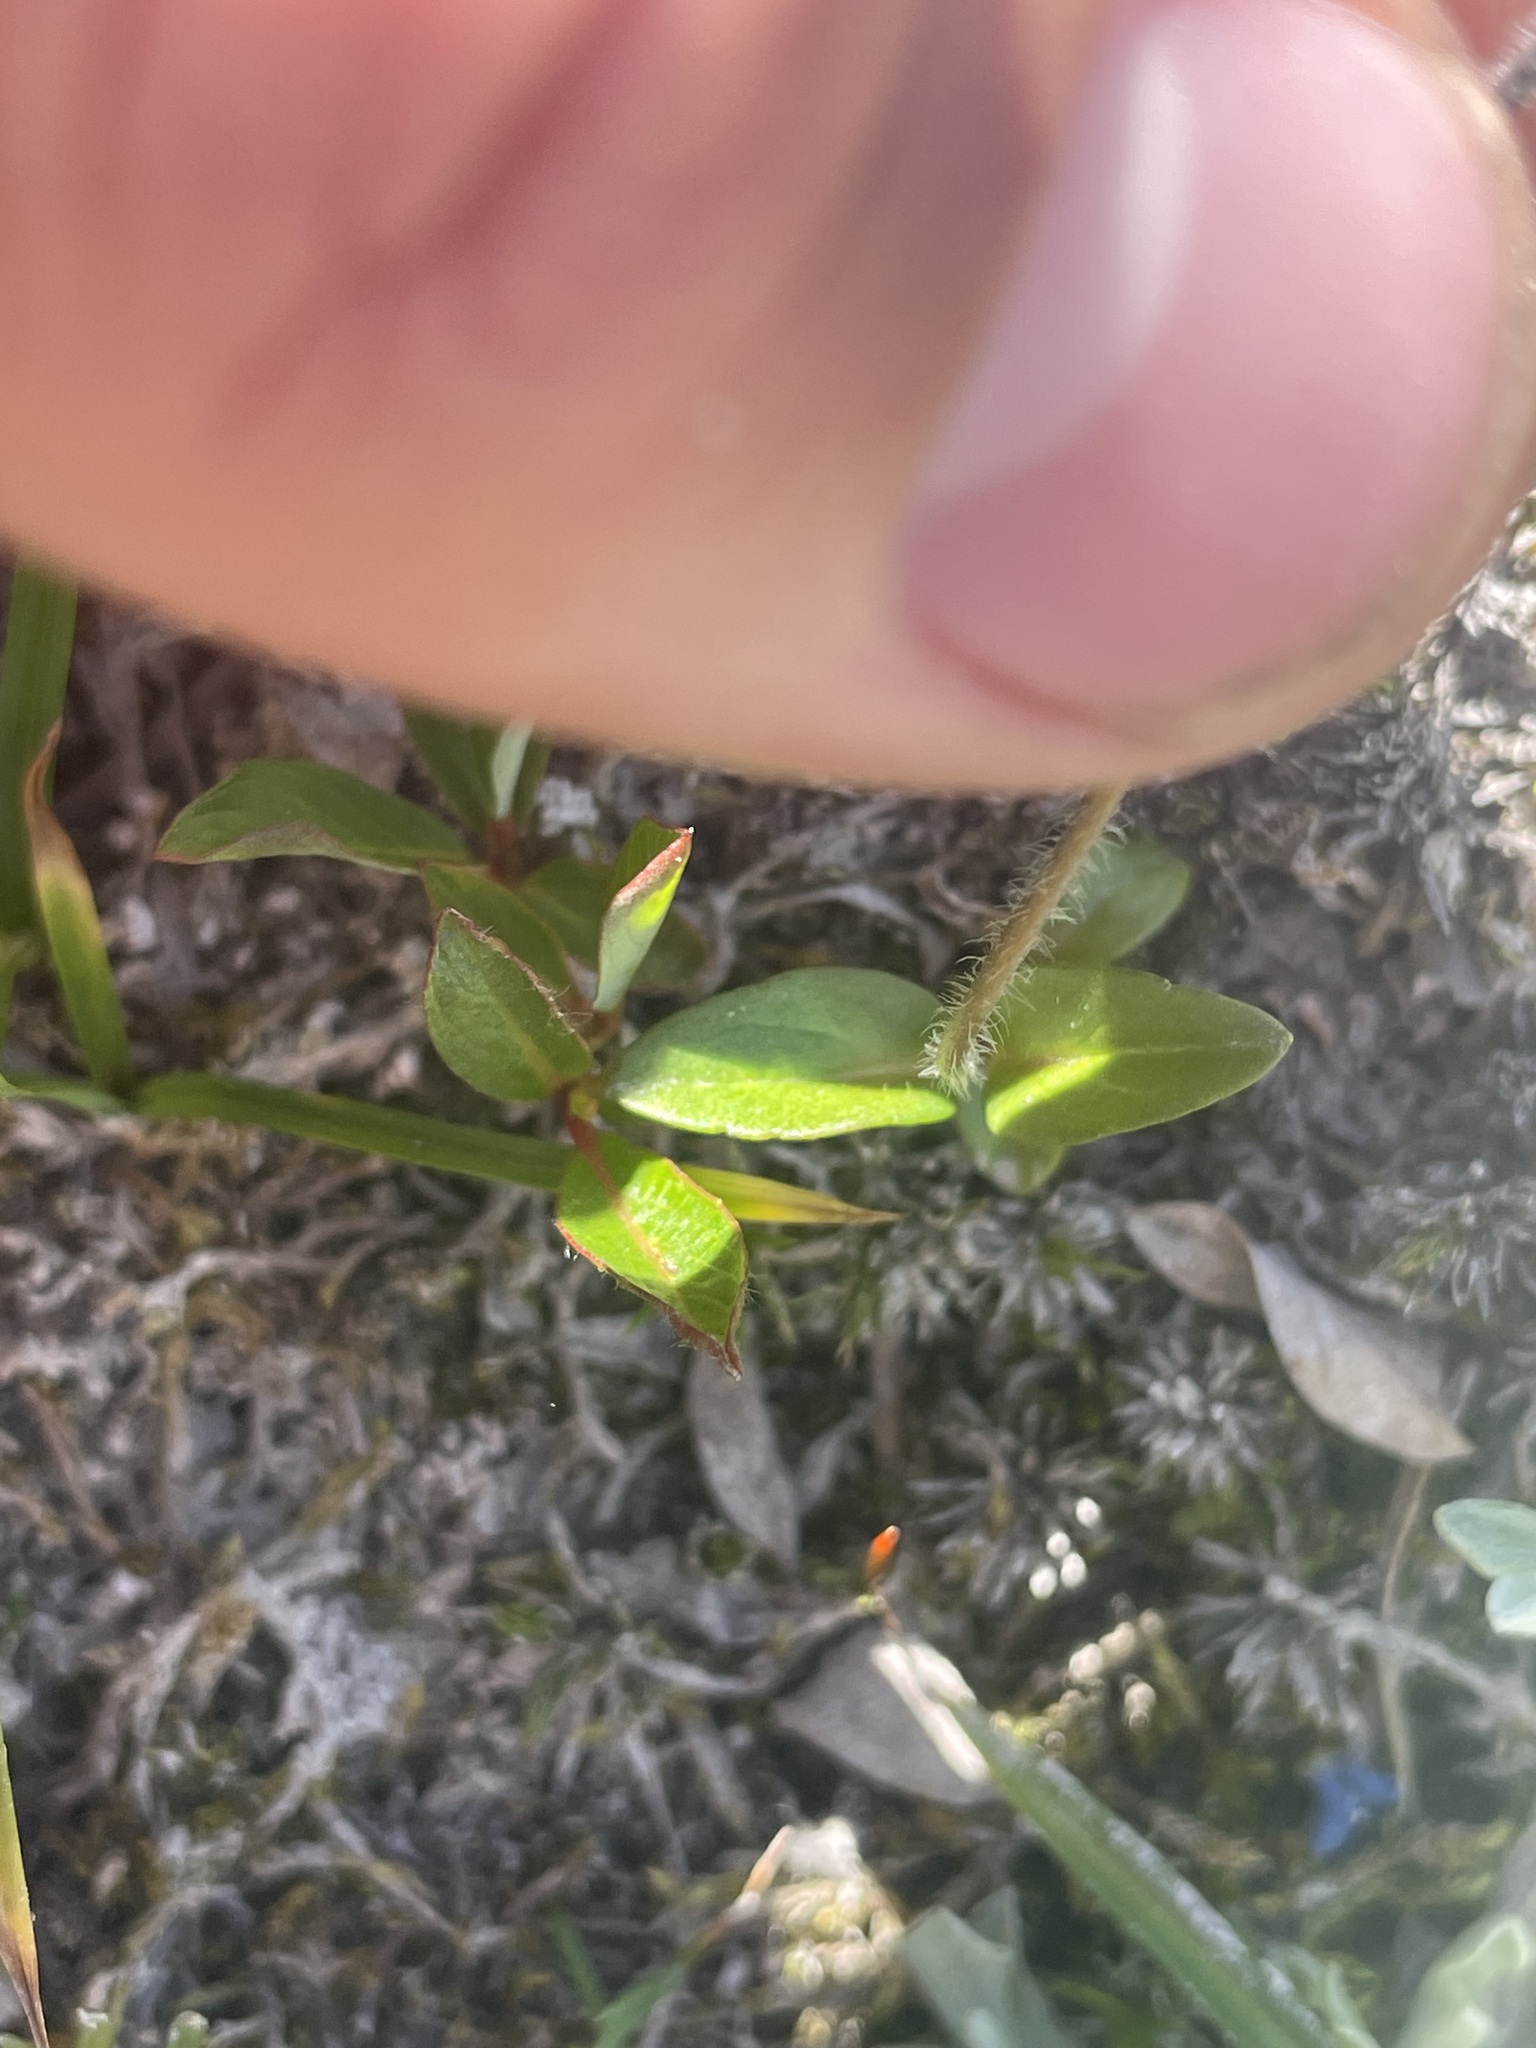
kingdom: Plantae
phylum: Tracheophyta
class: Magnoliopsida
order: Lamiales
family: Plantaginaceae
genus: Veronica
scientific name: Veronica wormskjoldii
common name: American alpine speedwell
